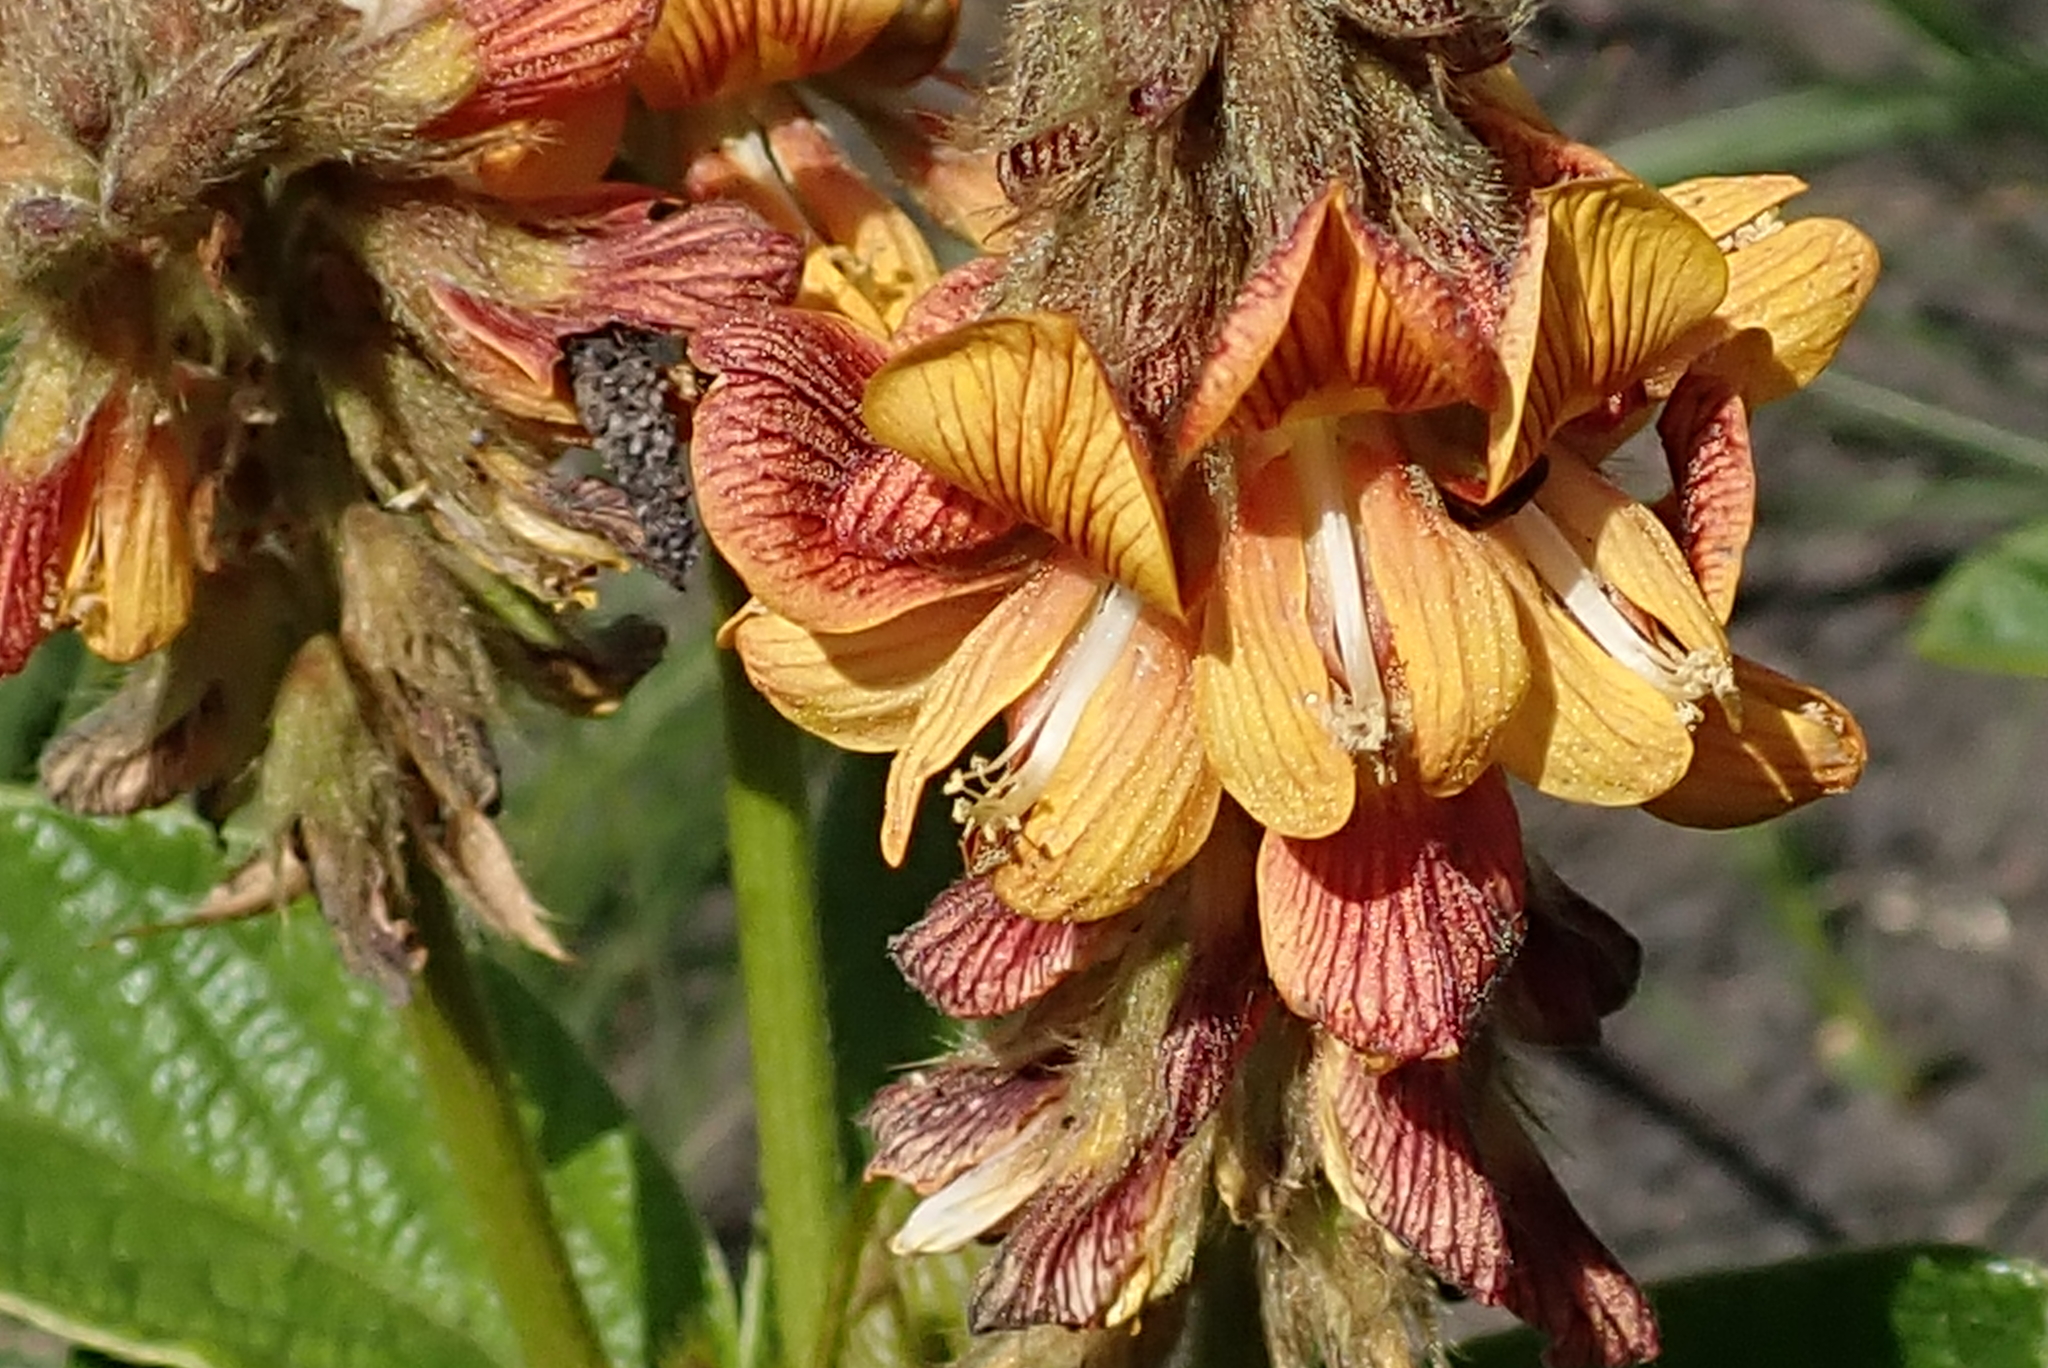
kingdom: Plantae
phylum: Tracheophyta
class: Magnoliopsida
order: Fabales
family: Fabaceae
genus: Eriosema
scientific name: Eriosema umtamvunense
